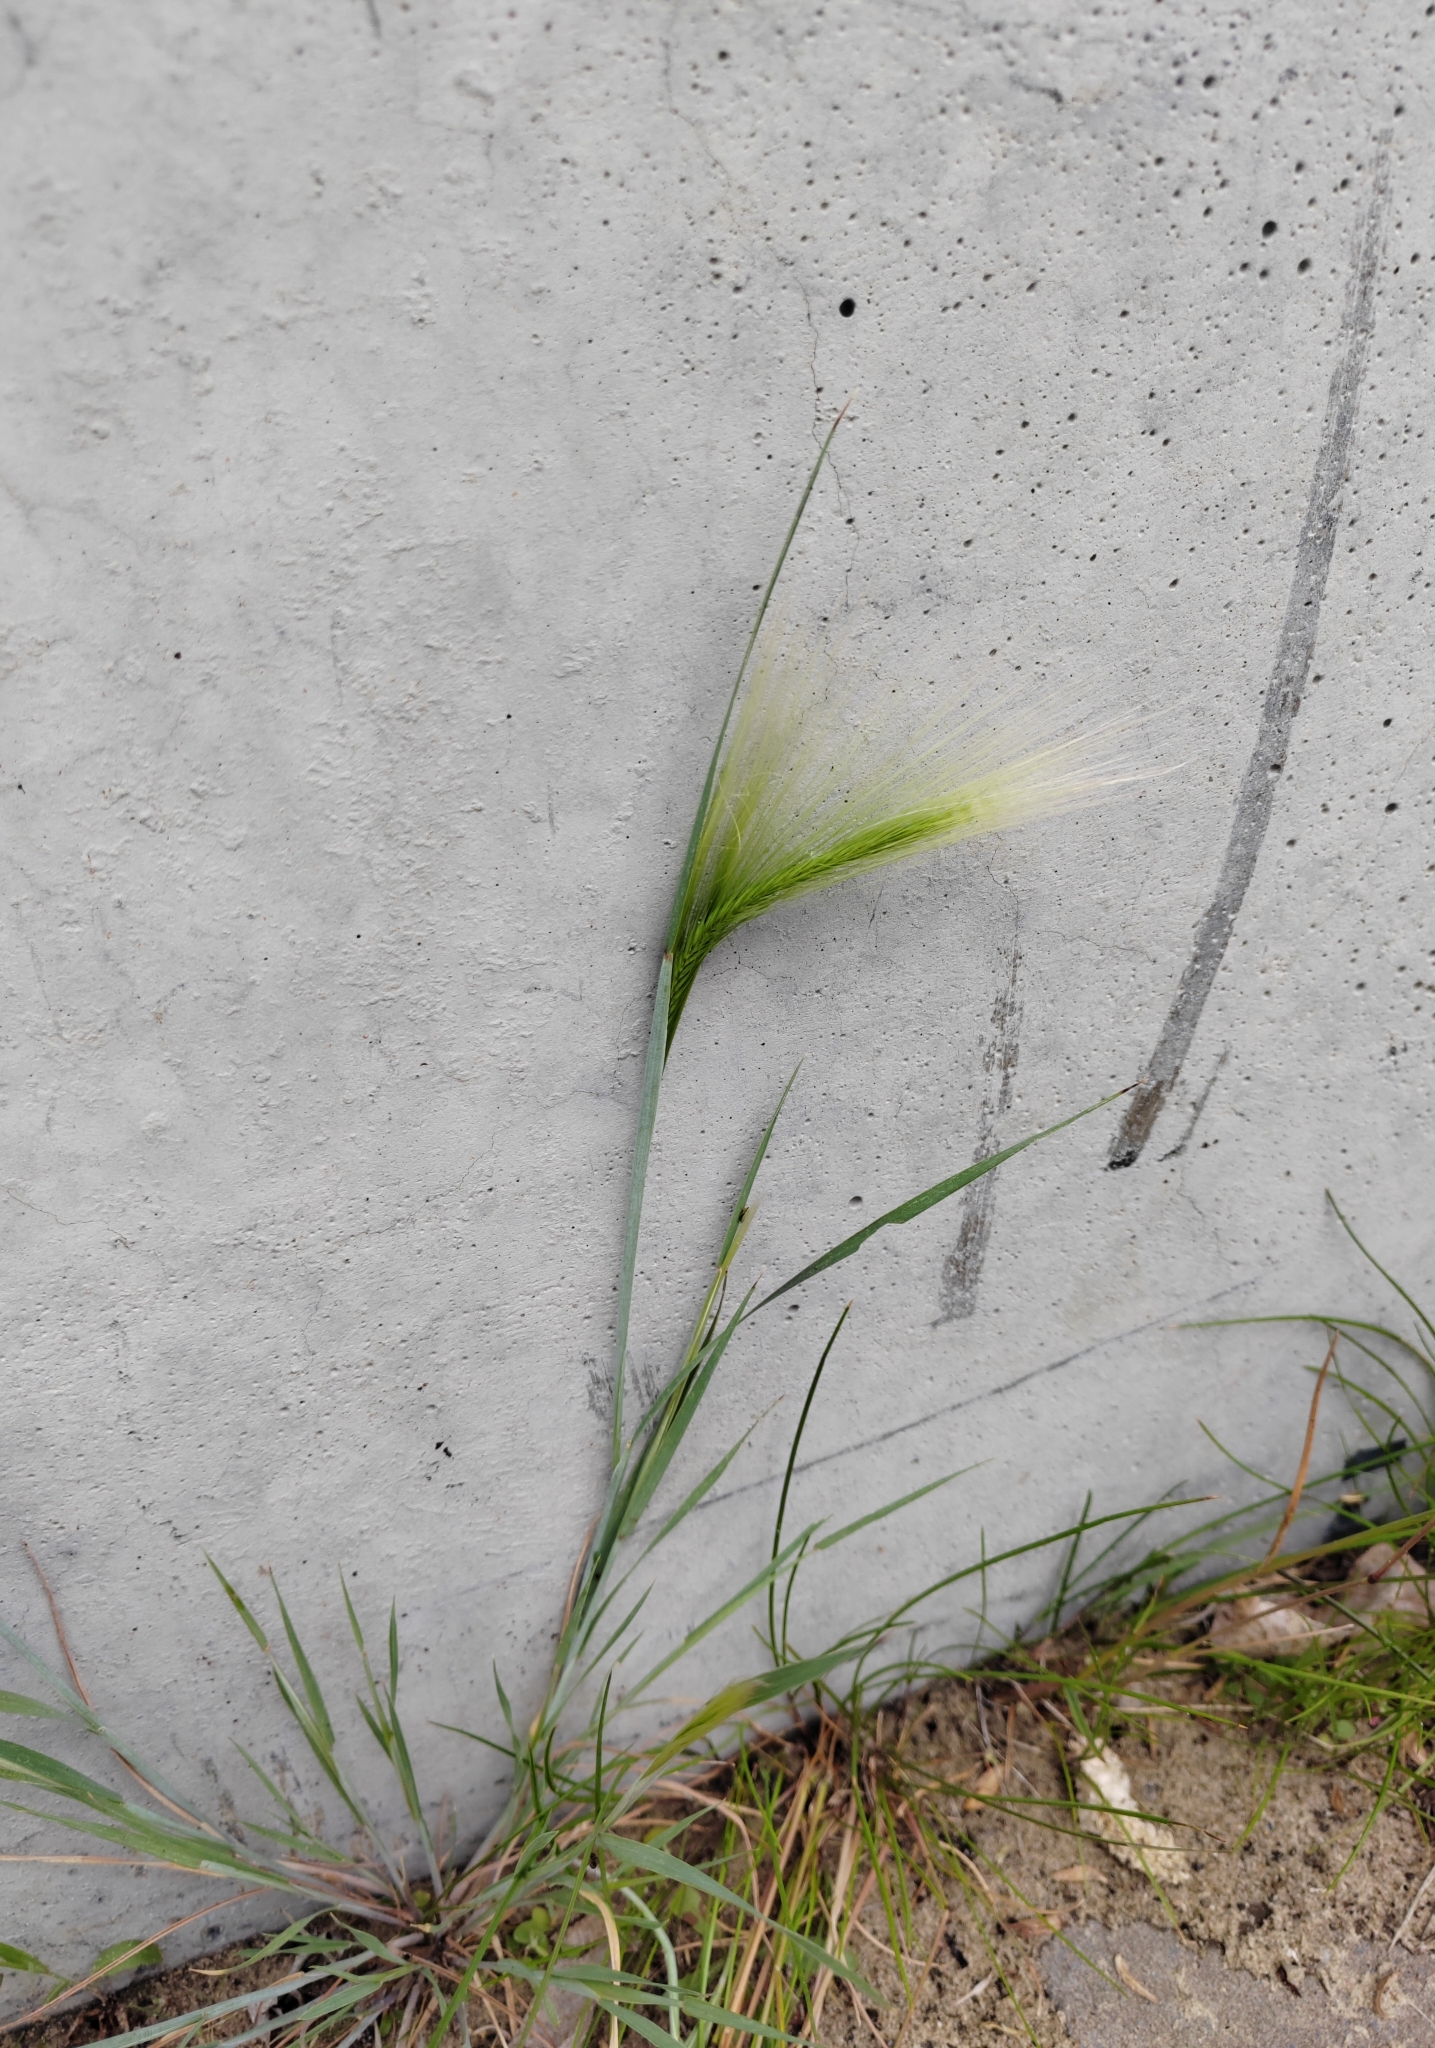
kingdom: Plantae
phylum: Tracheophyta
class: Liliopsida
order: Poales
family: Poaceae
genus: Hordeum
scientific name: Hordeum jubatum
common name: Foxtail barley
